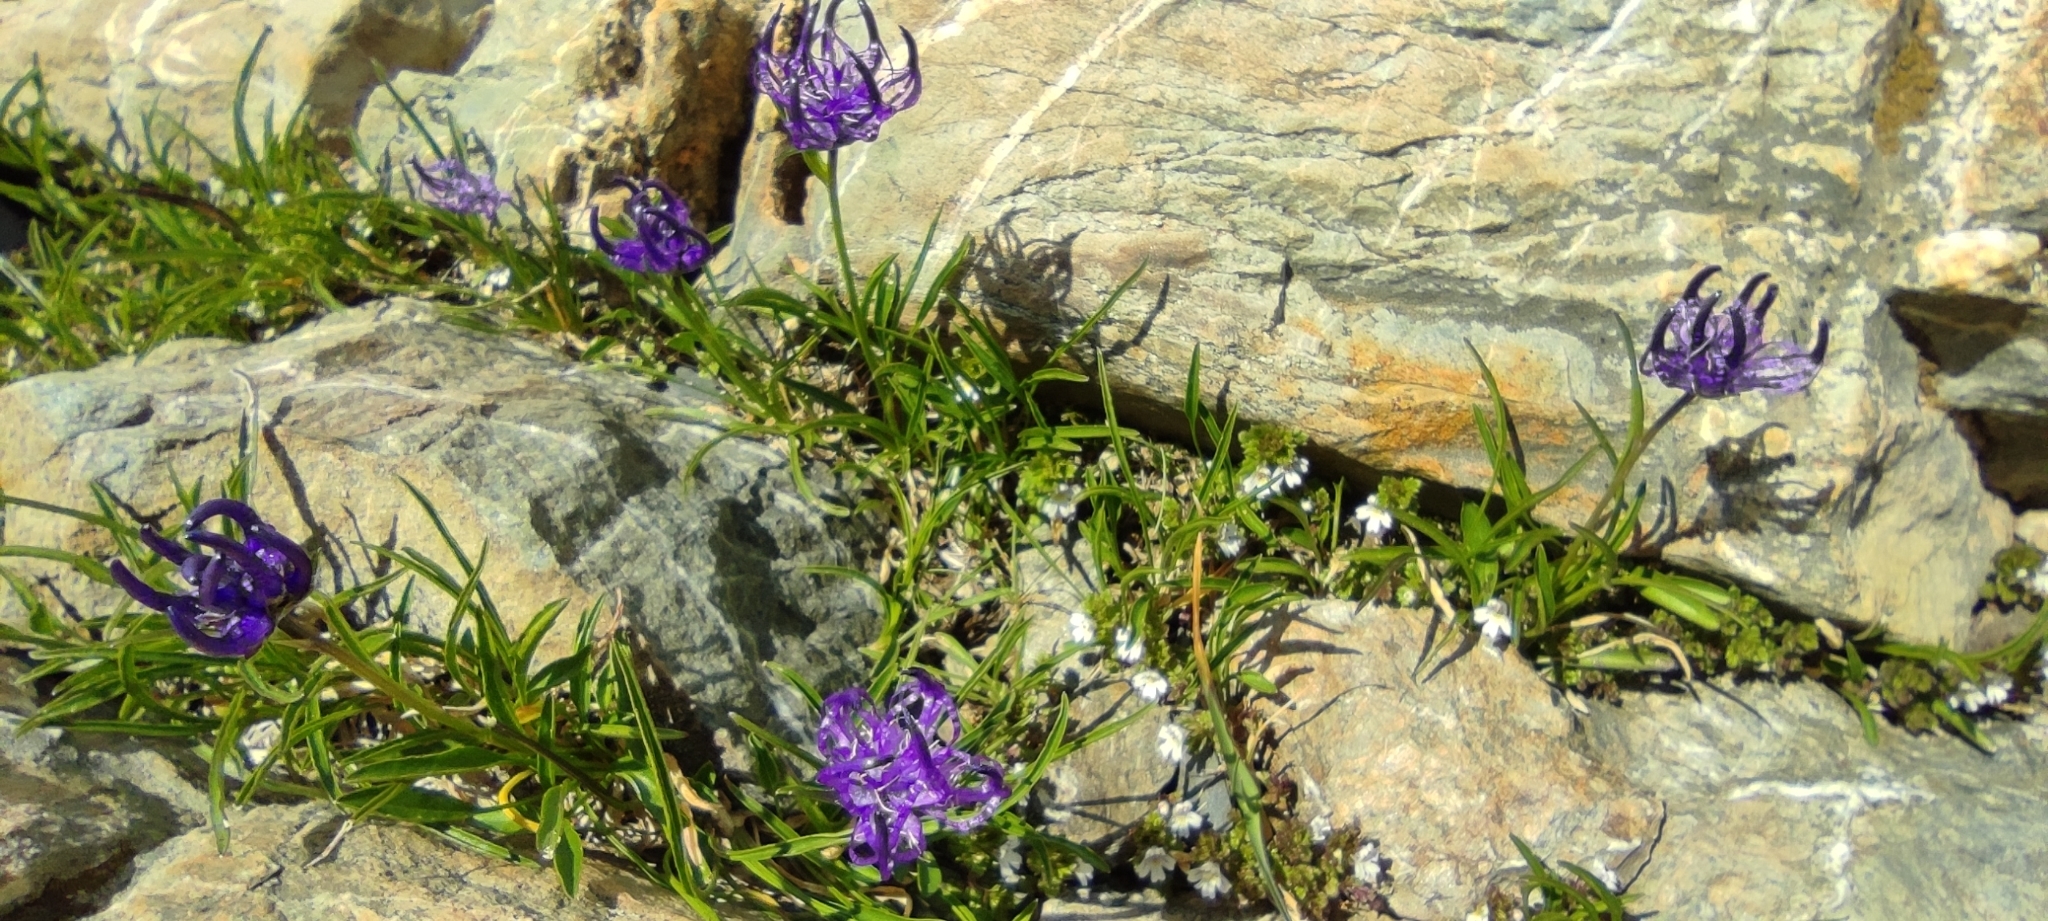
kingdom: Plantae
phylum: Tracheophyta
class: Magnoliopsida
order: Asterales
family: Campanulaceae
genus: Phyteuma
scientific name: Phyteuma hemisphaericum
